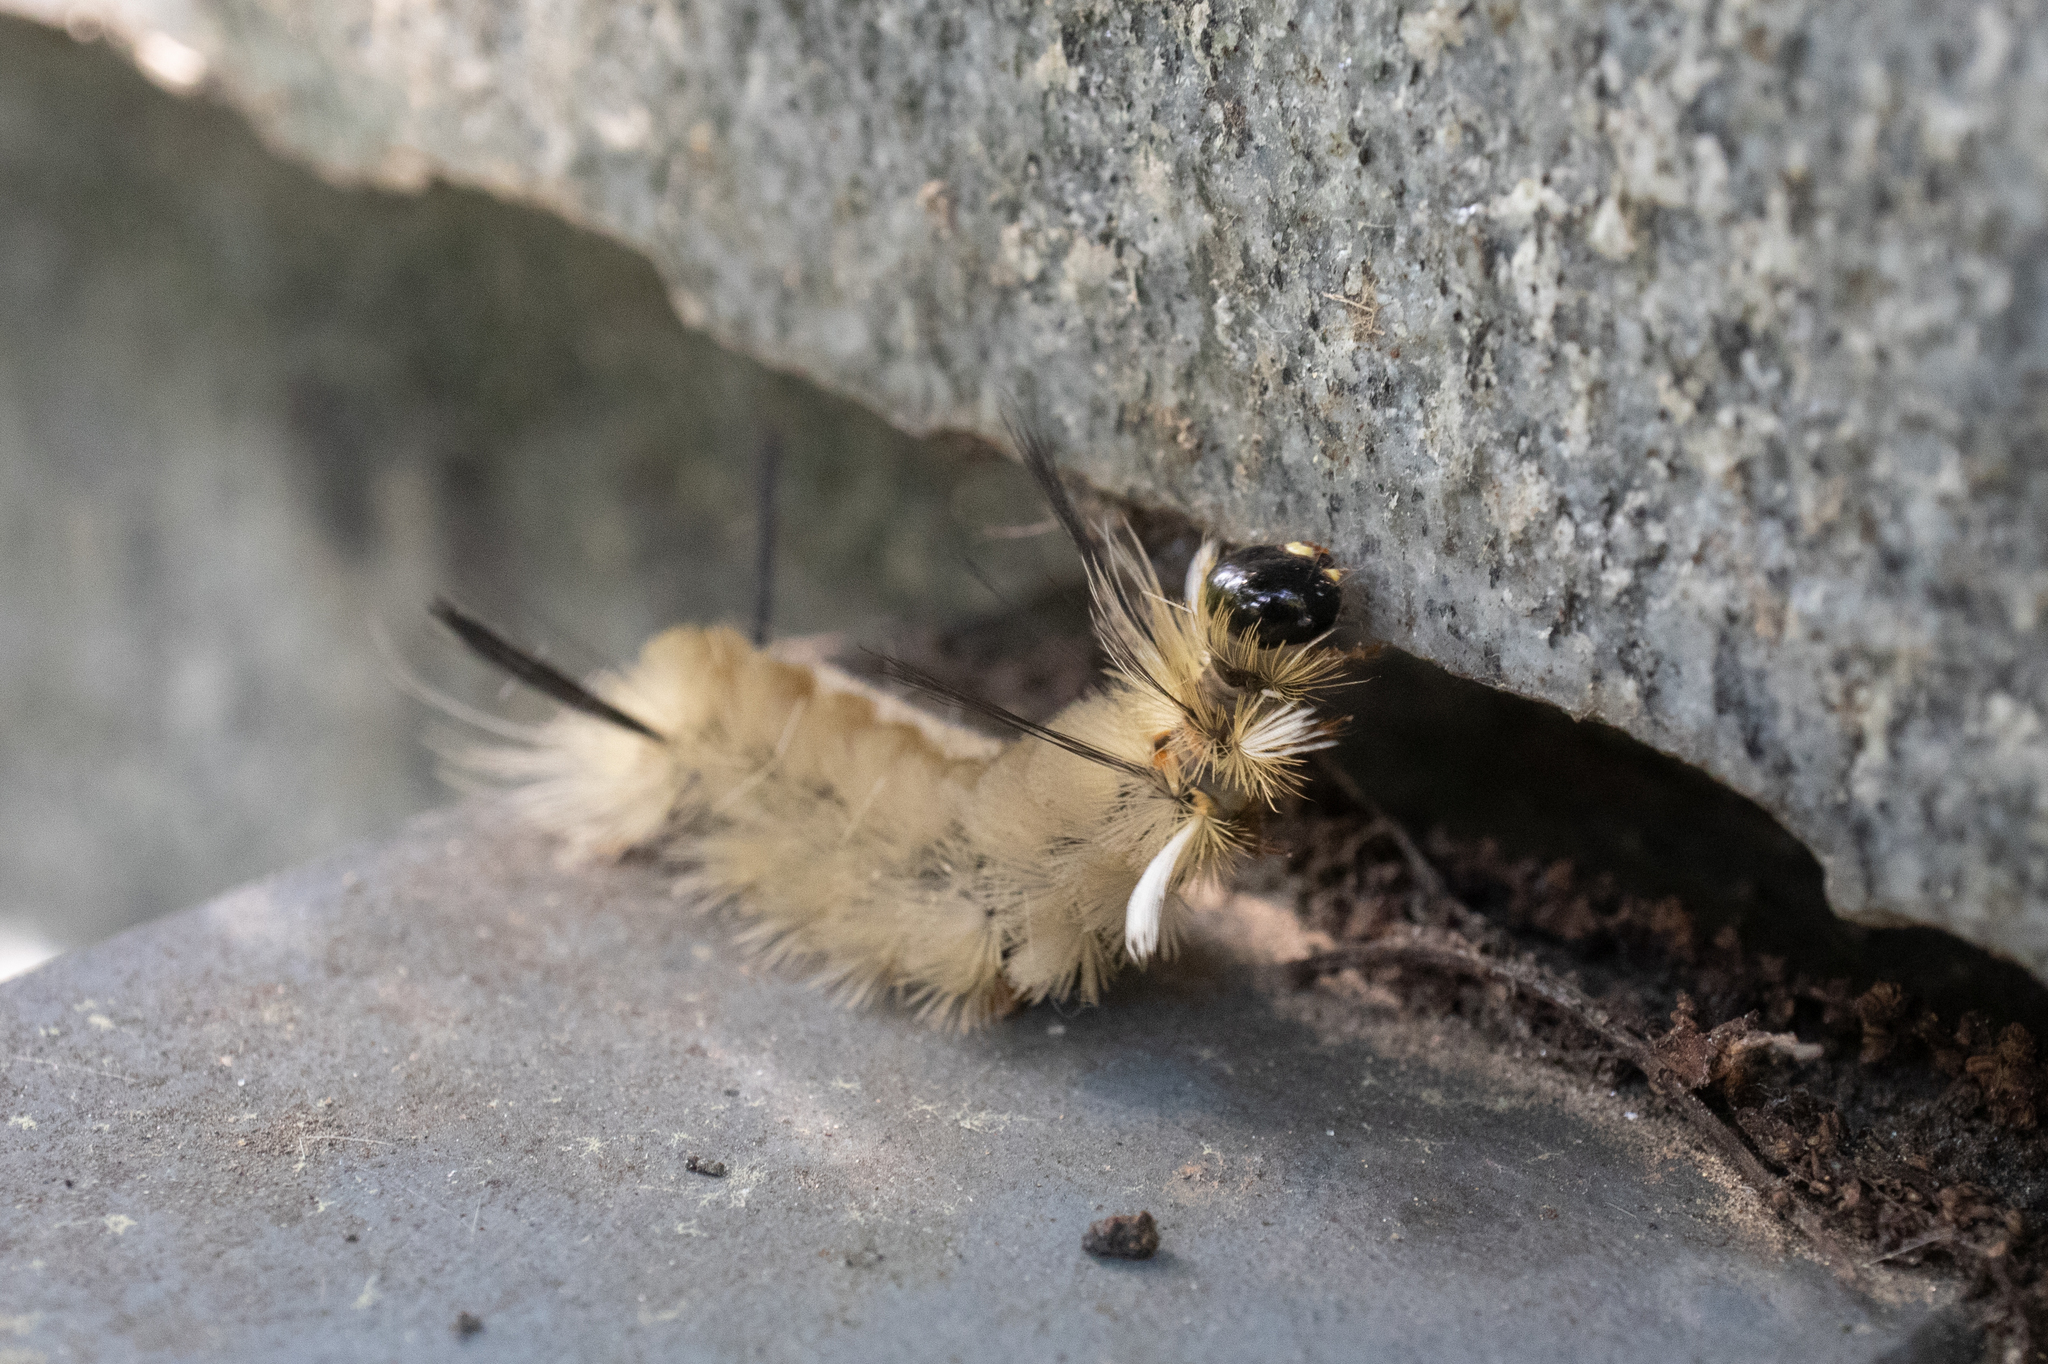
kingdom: Animalia
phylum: Arthropoda
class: Insecta
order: Lepidoptera
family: Erebidae
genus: Halysidota
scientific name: Halysidota tessellaris
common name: Banded tussock moth
